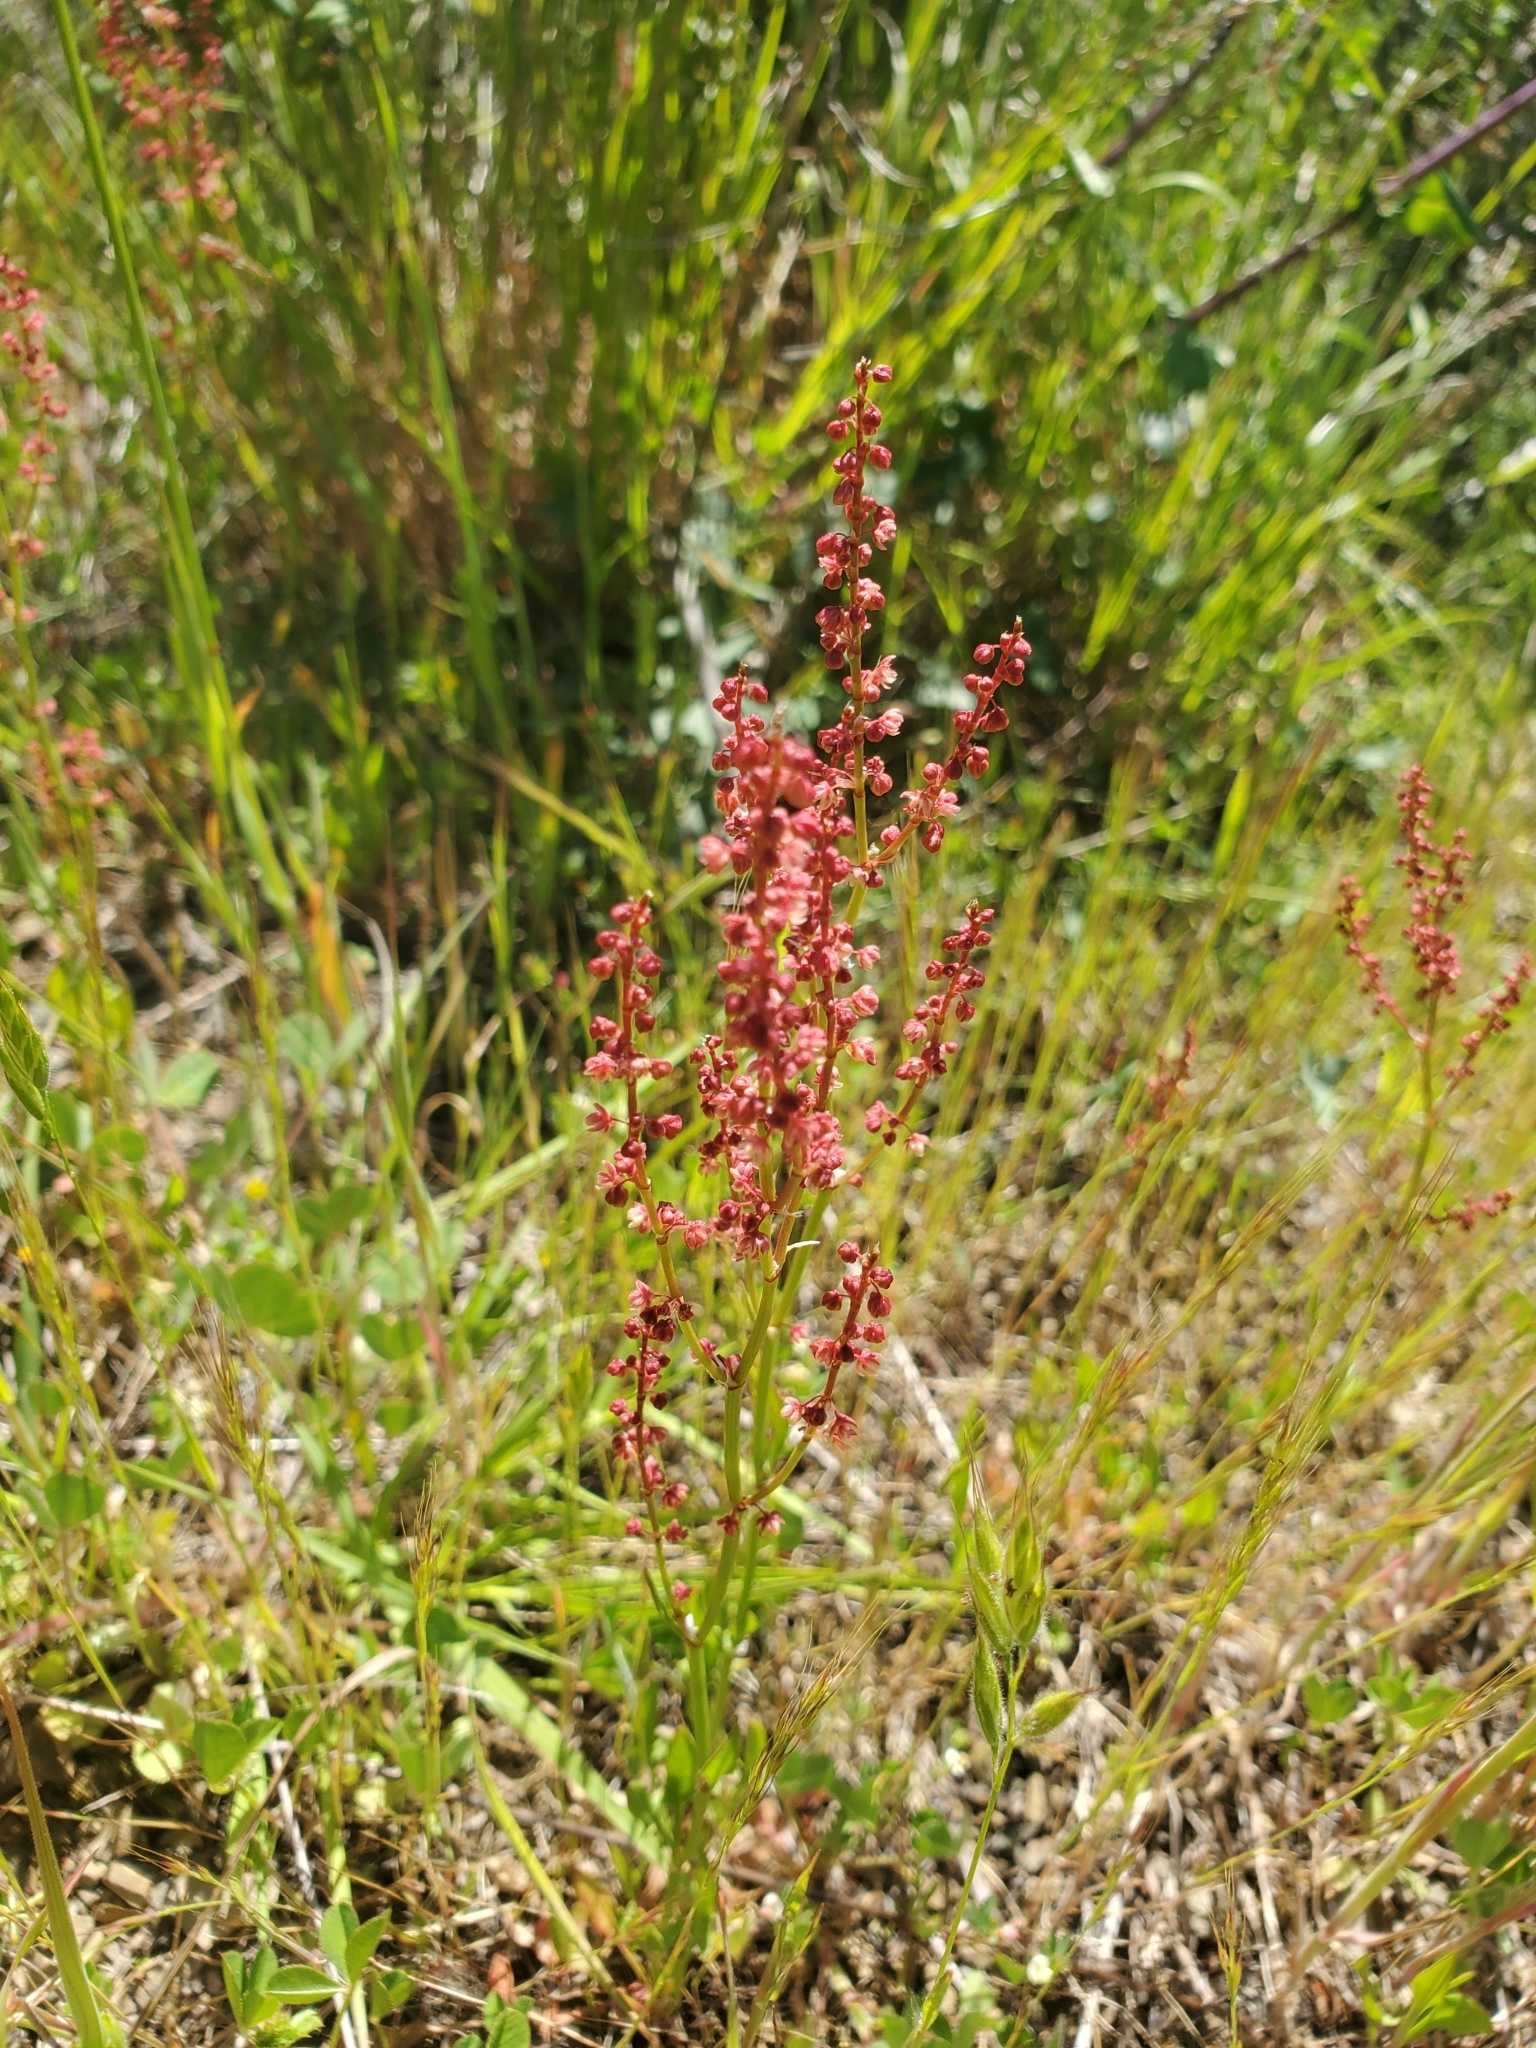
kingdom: Plantae
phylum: Tracheophyta
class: Magnoliopsida
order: Caryophyllales
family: Polygonaceae
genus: Rumex
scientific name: Rumex acetosella
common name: Common sheep sorrel
